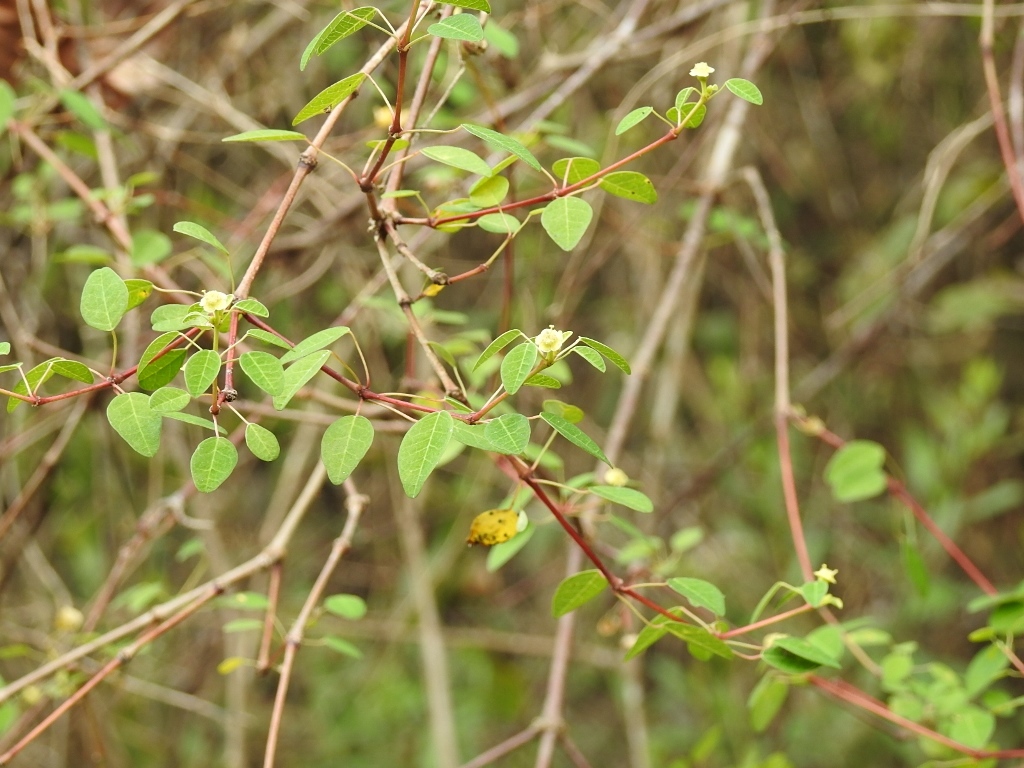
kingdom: Plantae
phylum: Tracheophyta
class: Magnoliopsida
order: Malpighiales
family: Euphorbiaceae
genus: Euphorbia
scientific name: Euphorbia schlechtendalii
